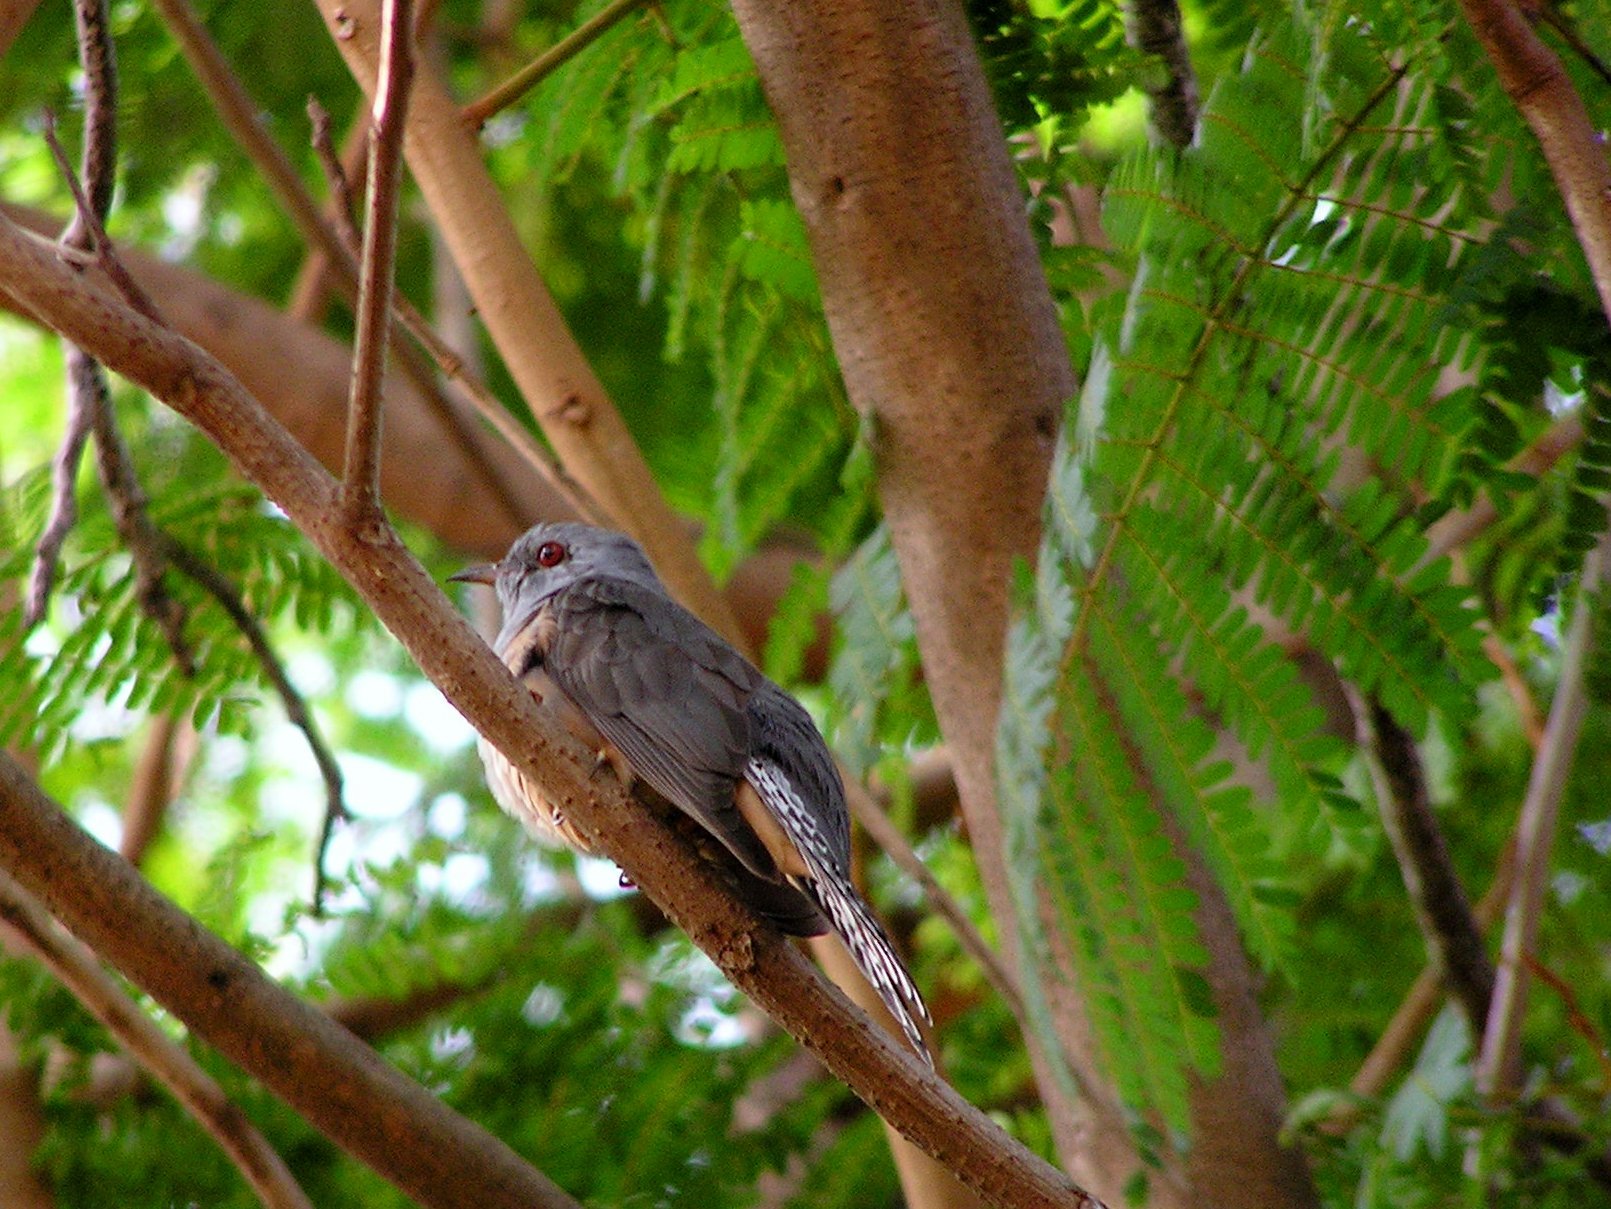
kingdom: Animalia
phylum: Chordata
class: Aves
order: Cuculiformes
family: Cuculidae
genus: Cacomantis
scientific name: Cacomantis merulinus
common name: Plaintive cuckoo
